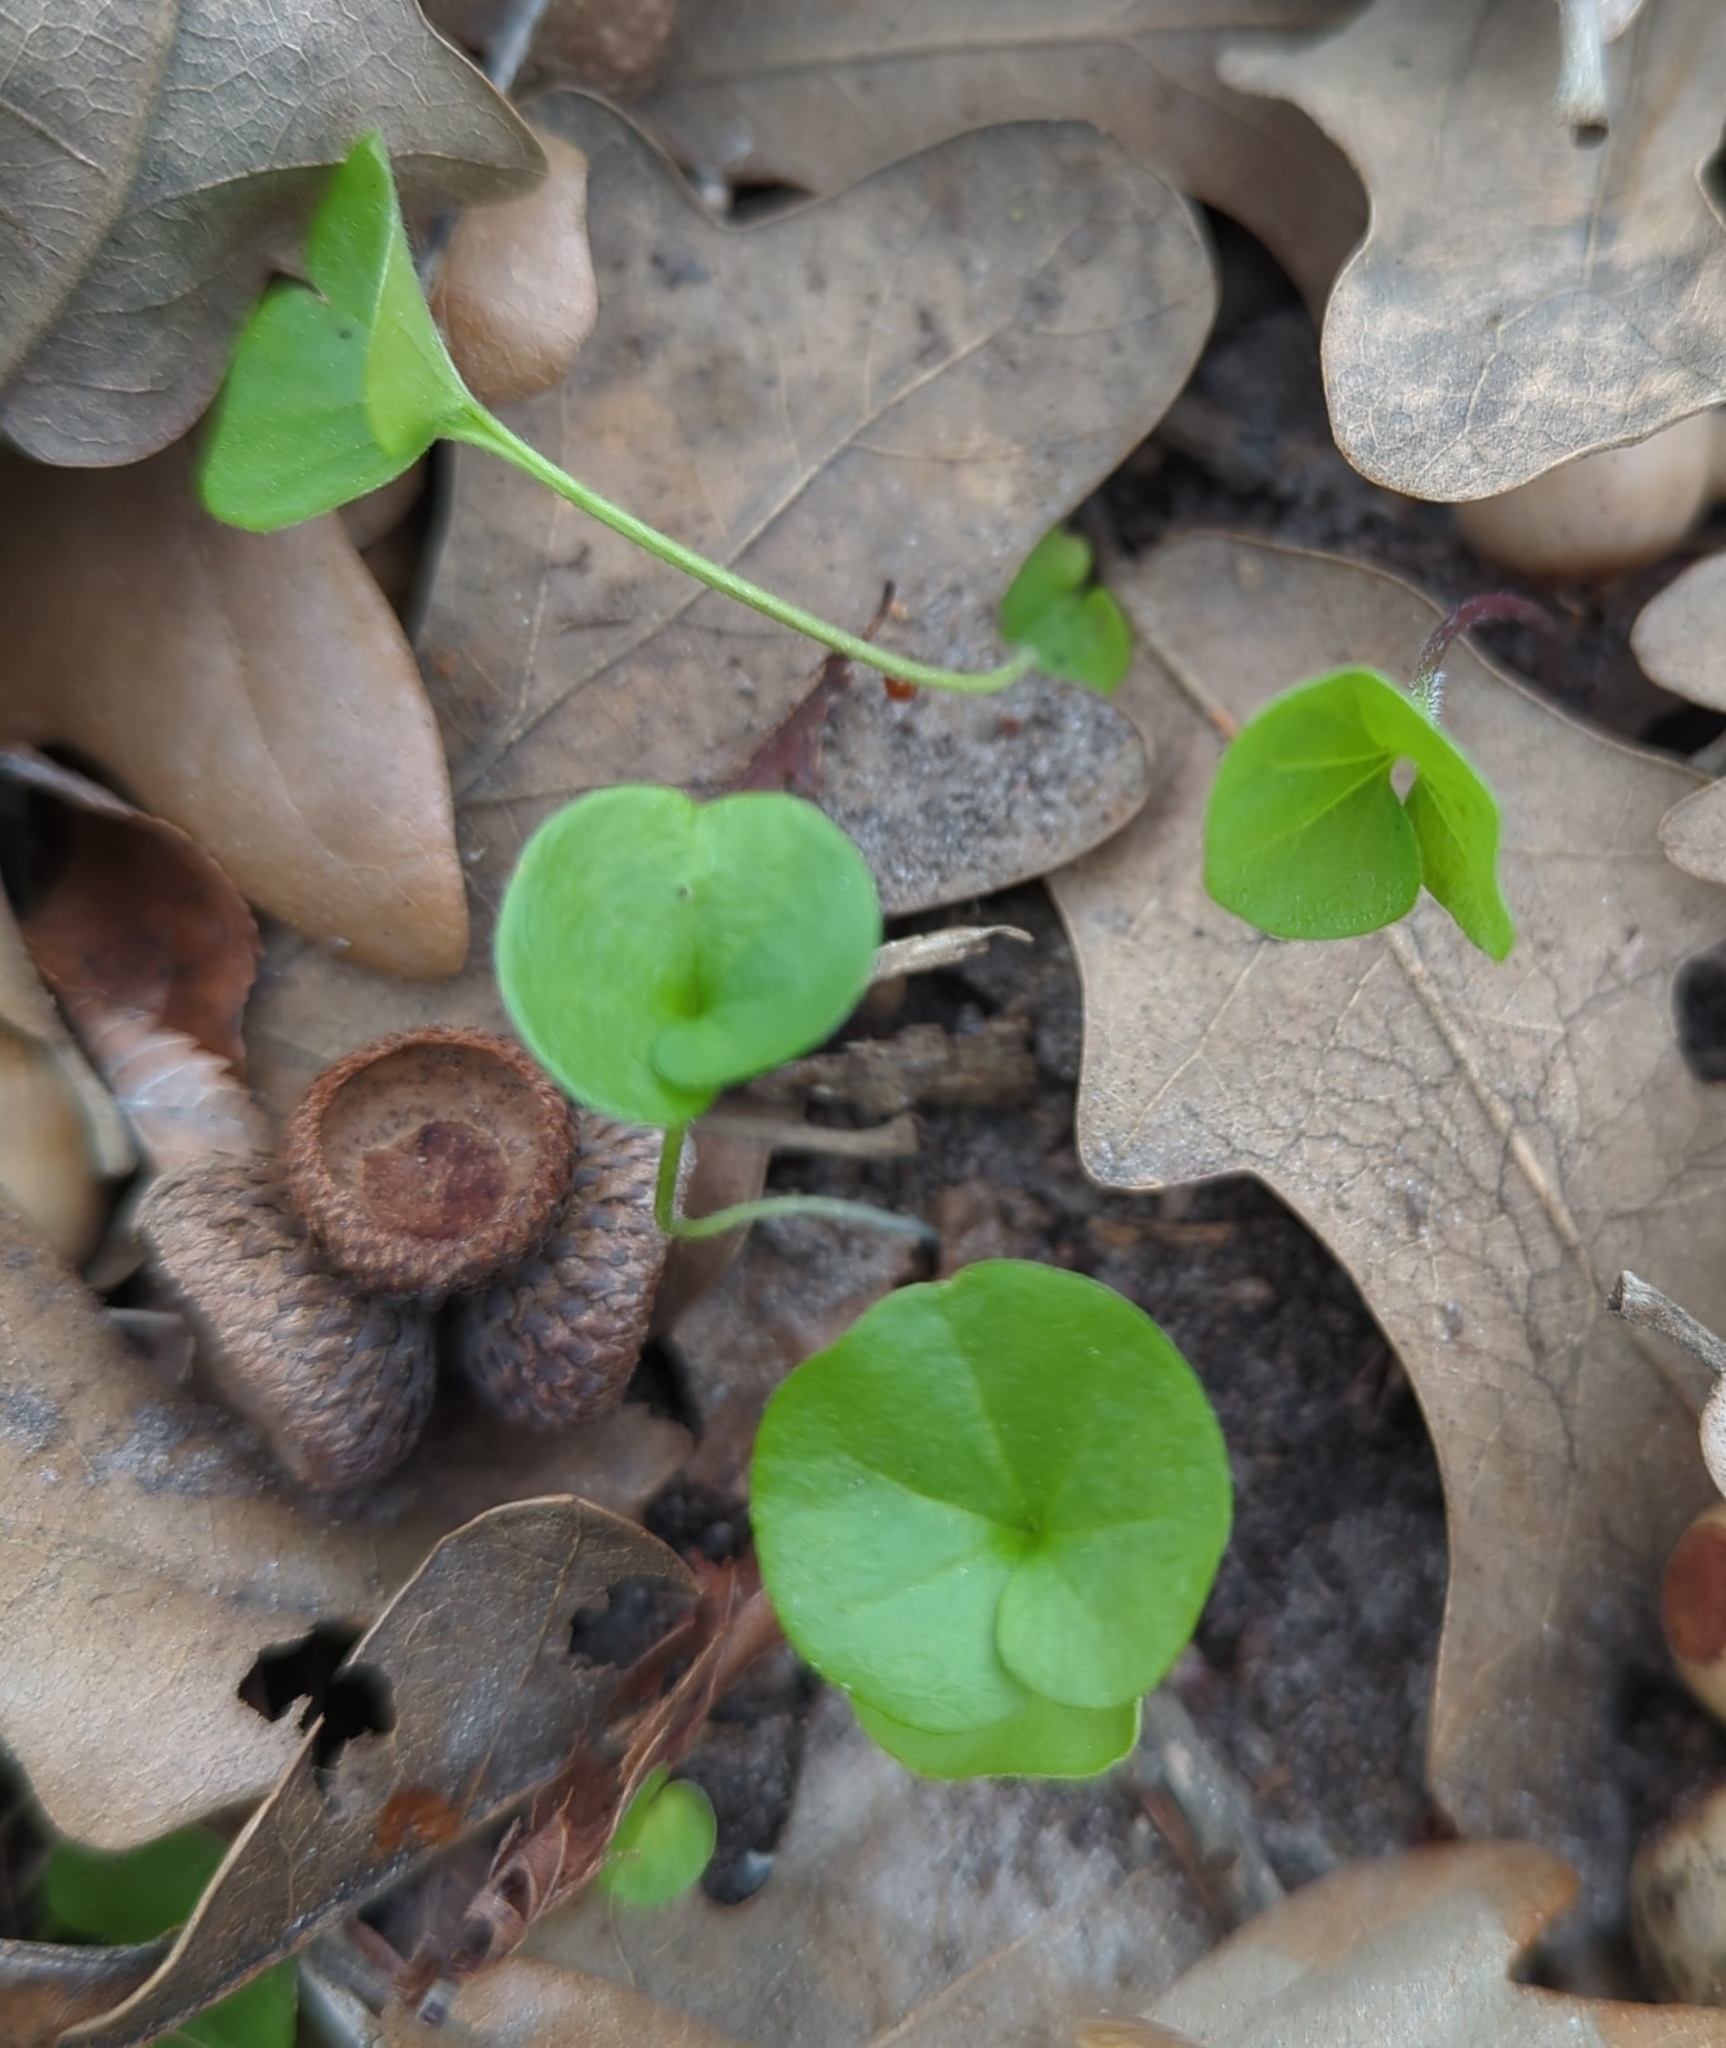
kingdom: Plantae
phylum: Tracheophyta
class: Magnoliopsida
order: Solanales
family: Convolvulaceae
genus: Dichondra
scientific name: Dichondra carolinensis
